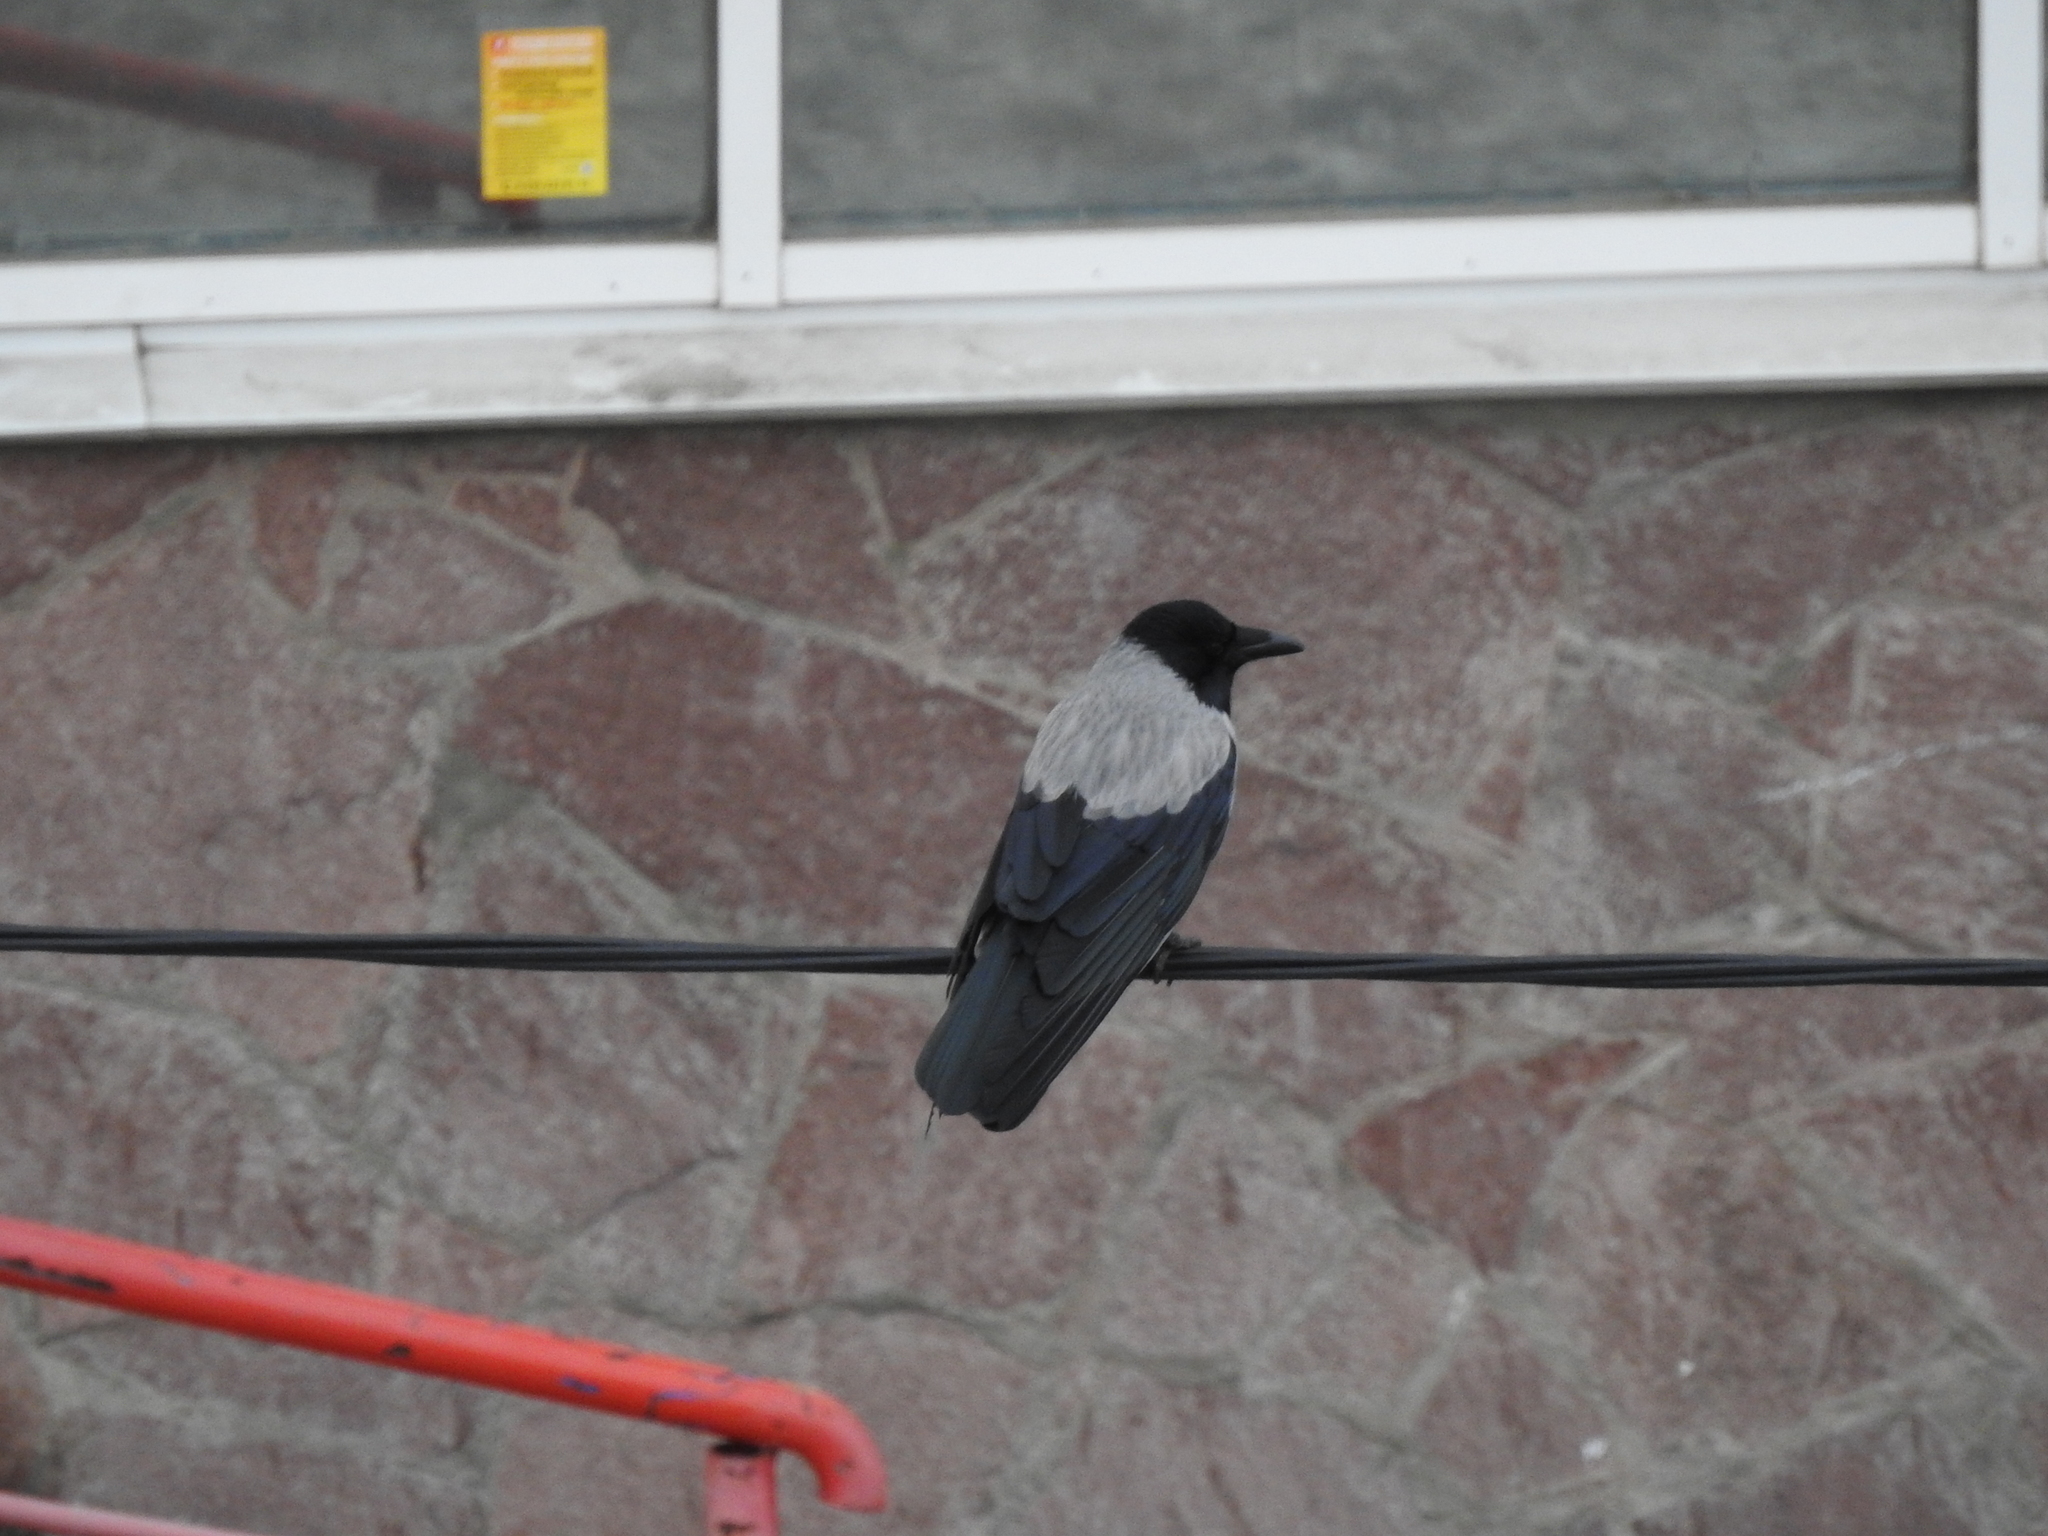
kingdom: Animalia
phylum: Chordata
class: Aves
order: Passeriformes
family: Corvidae
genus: Corvus
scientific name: Corvus cornix
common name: Hooded crow
